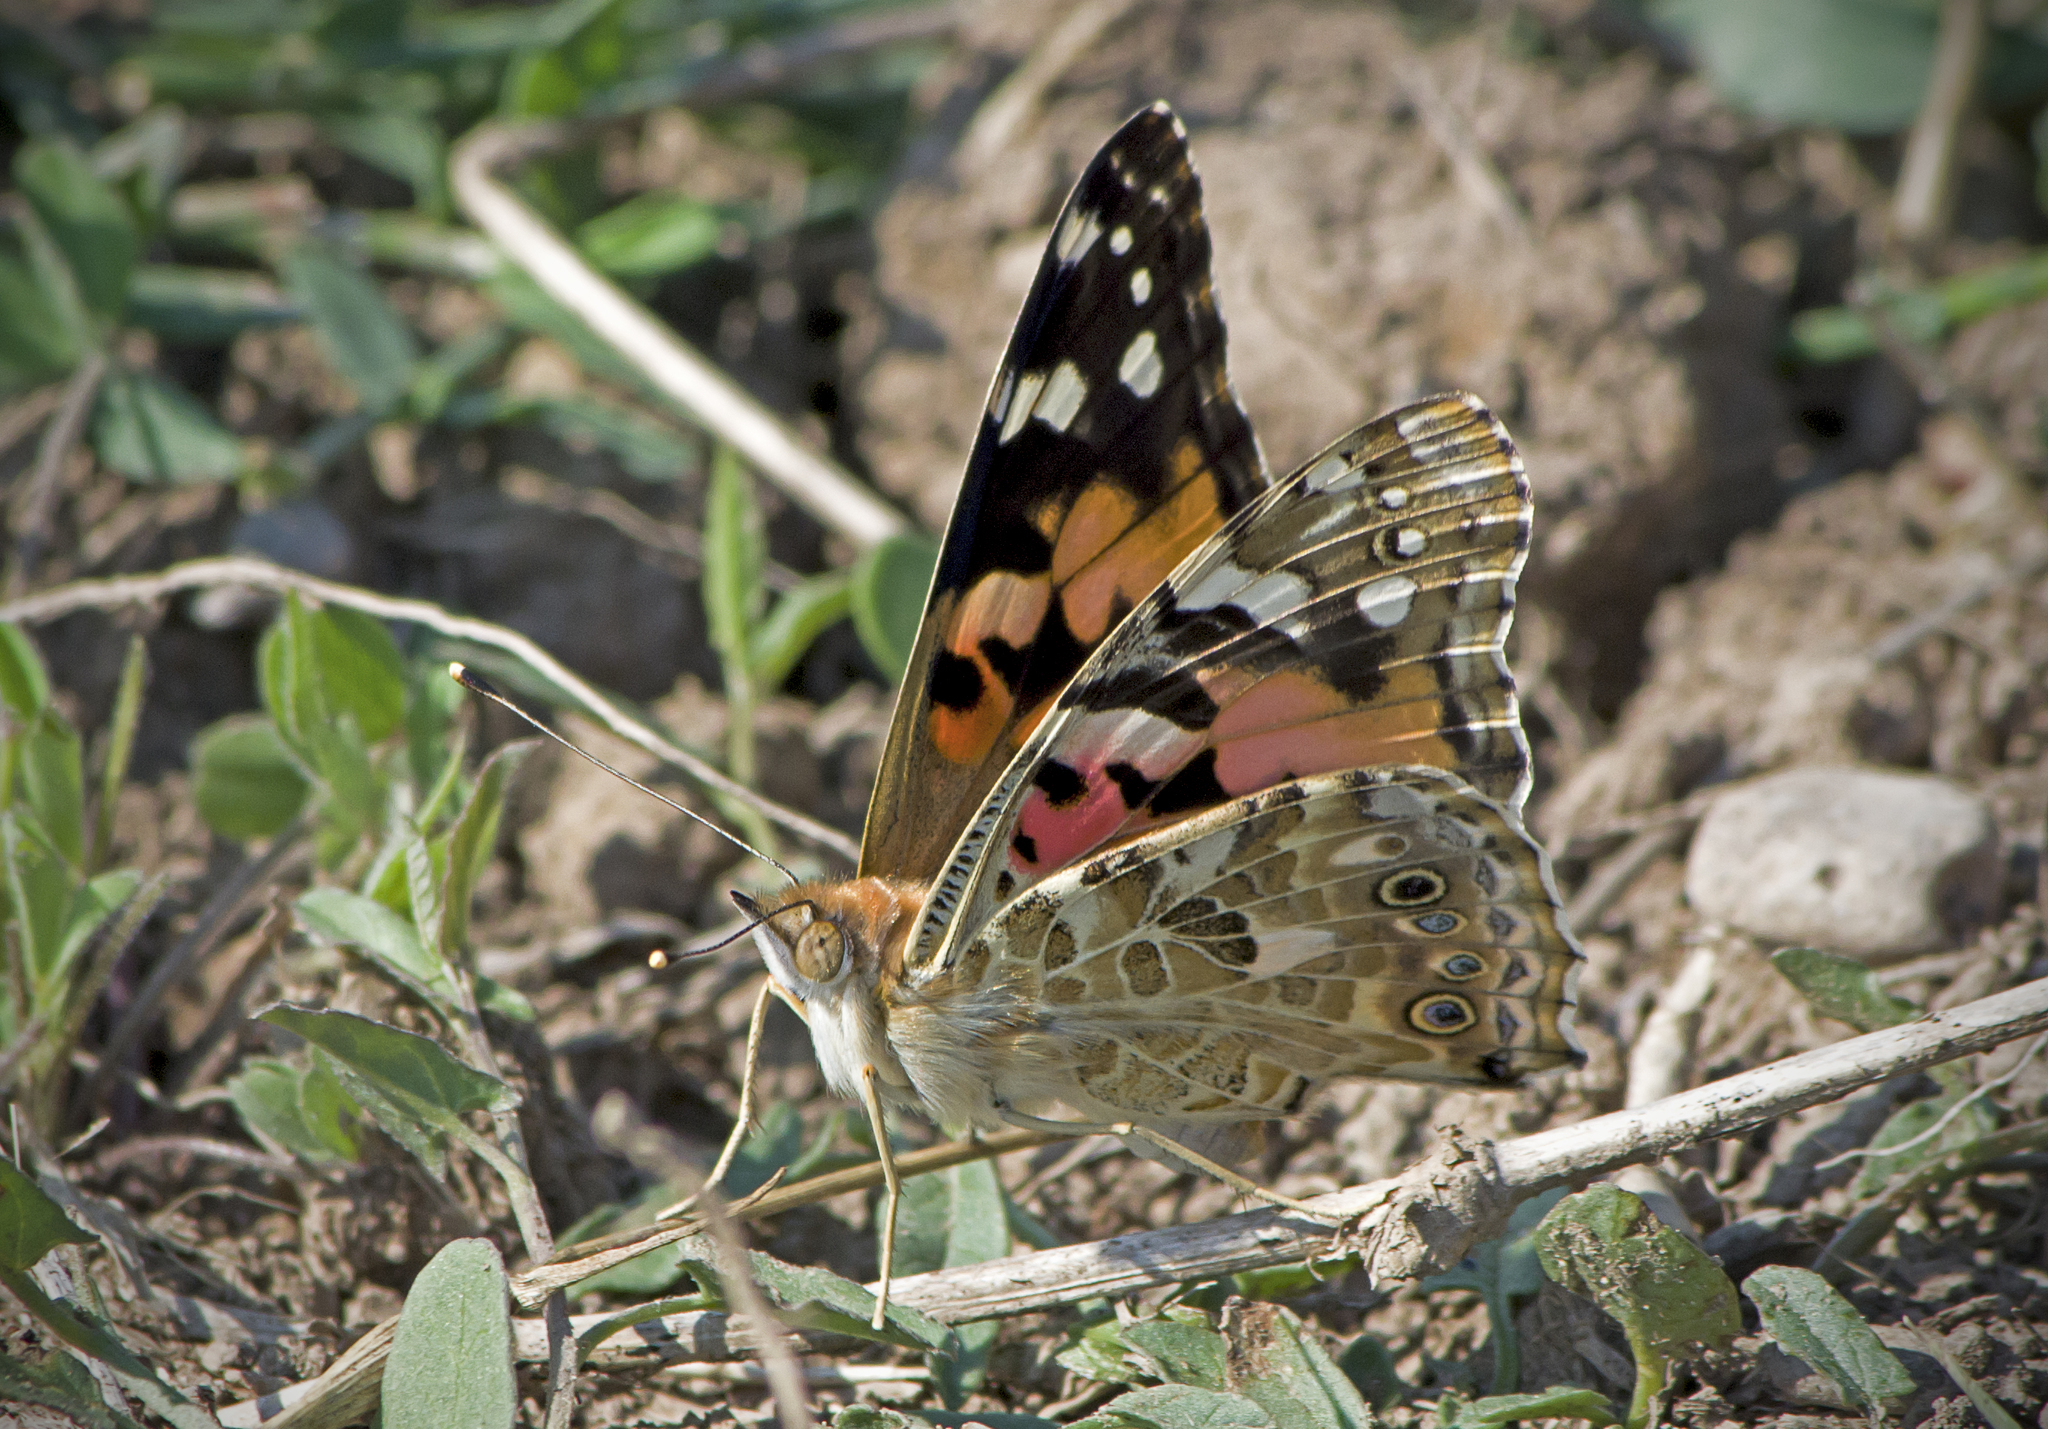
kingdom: Animalia
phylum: Arthropoda
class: Insecta
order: Lepidoptera
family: Nymphalidae
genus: Vanessa
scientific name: Vanessa cardui
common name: Painted lady
